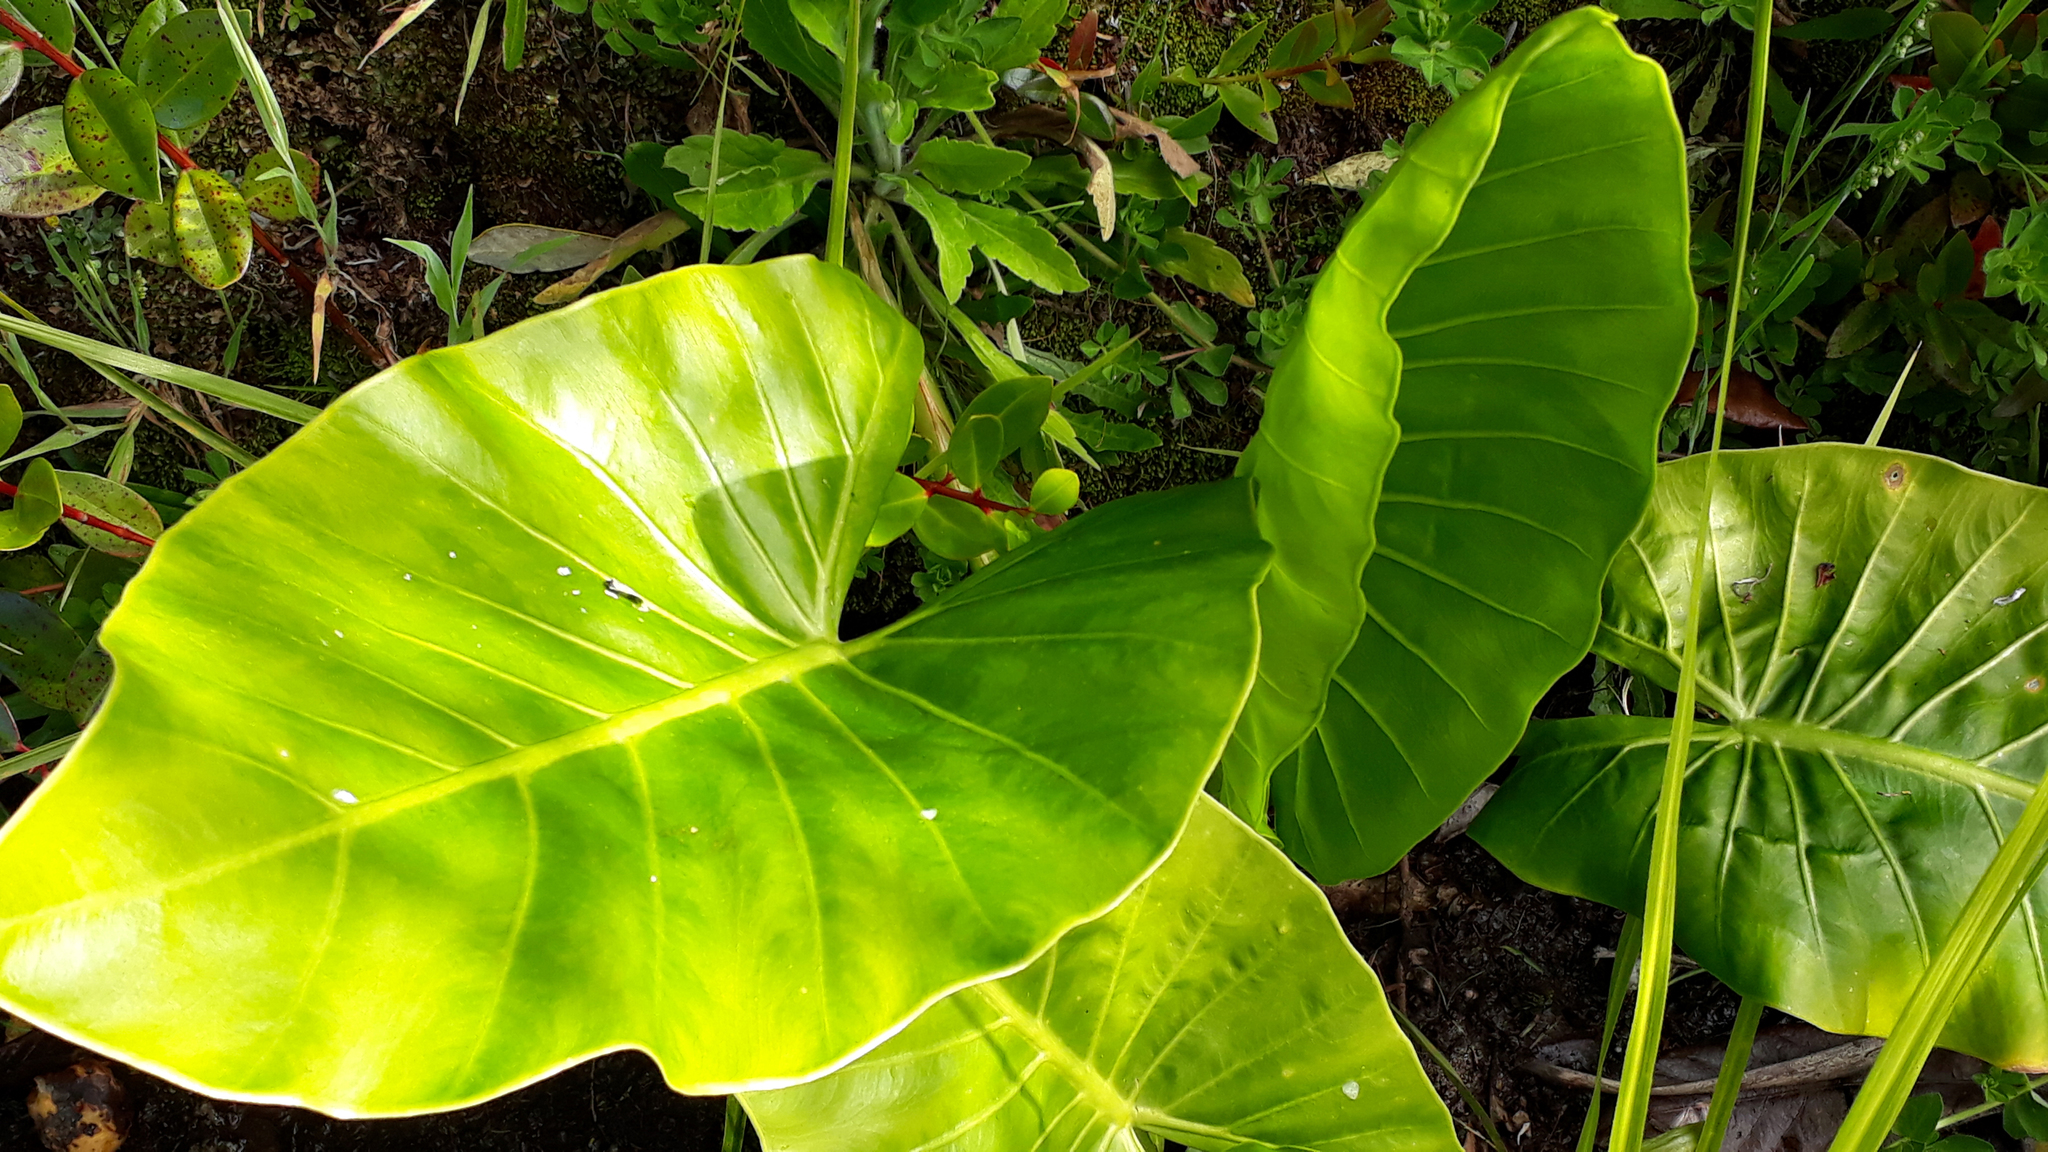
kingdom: Plantae
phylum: Tracheophyta
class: Liliopsida
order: Alismatales
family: Araceae
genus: Alocasia
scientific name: Alocasia brisbanensis
